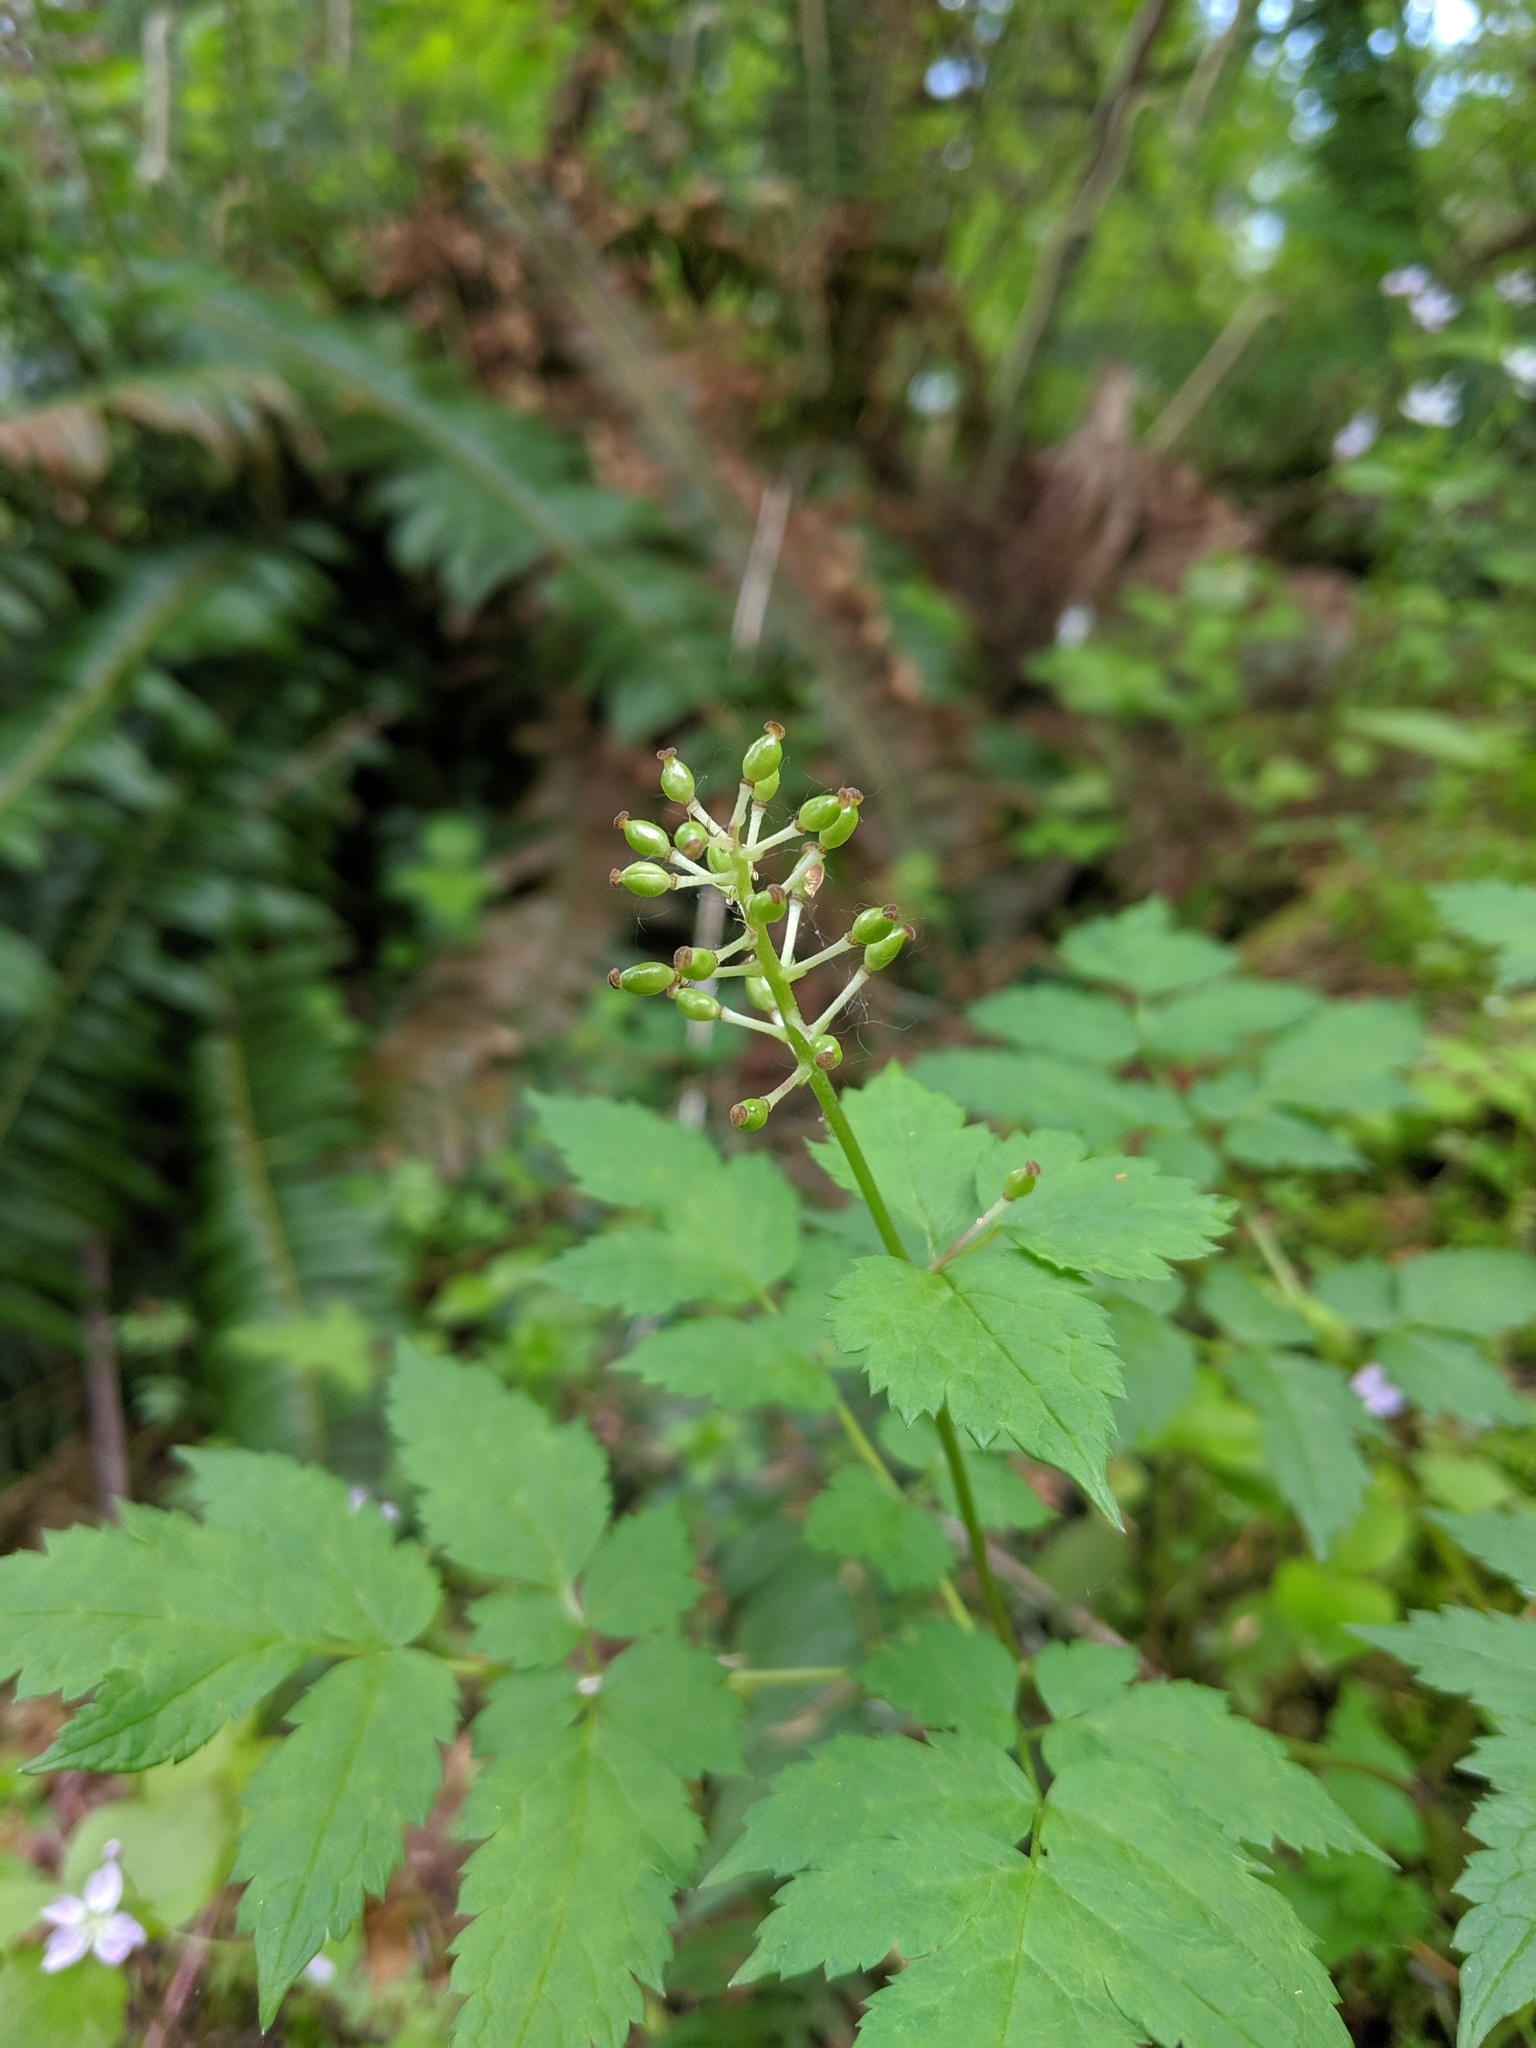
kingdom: Plantae
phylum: Tracheophyta
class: Magnoliopsida
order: Ranunculales
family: Ranunculaceae
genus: Actaea
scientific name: Actaea rubra
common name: Red baneberry
